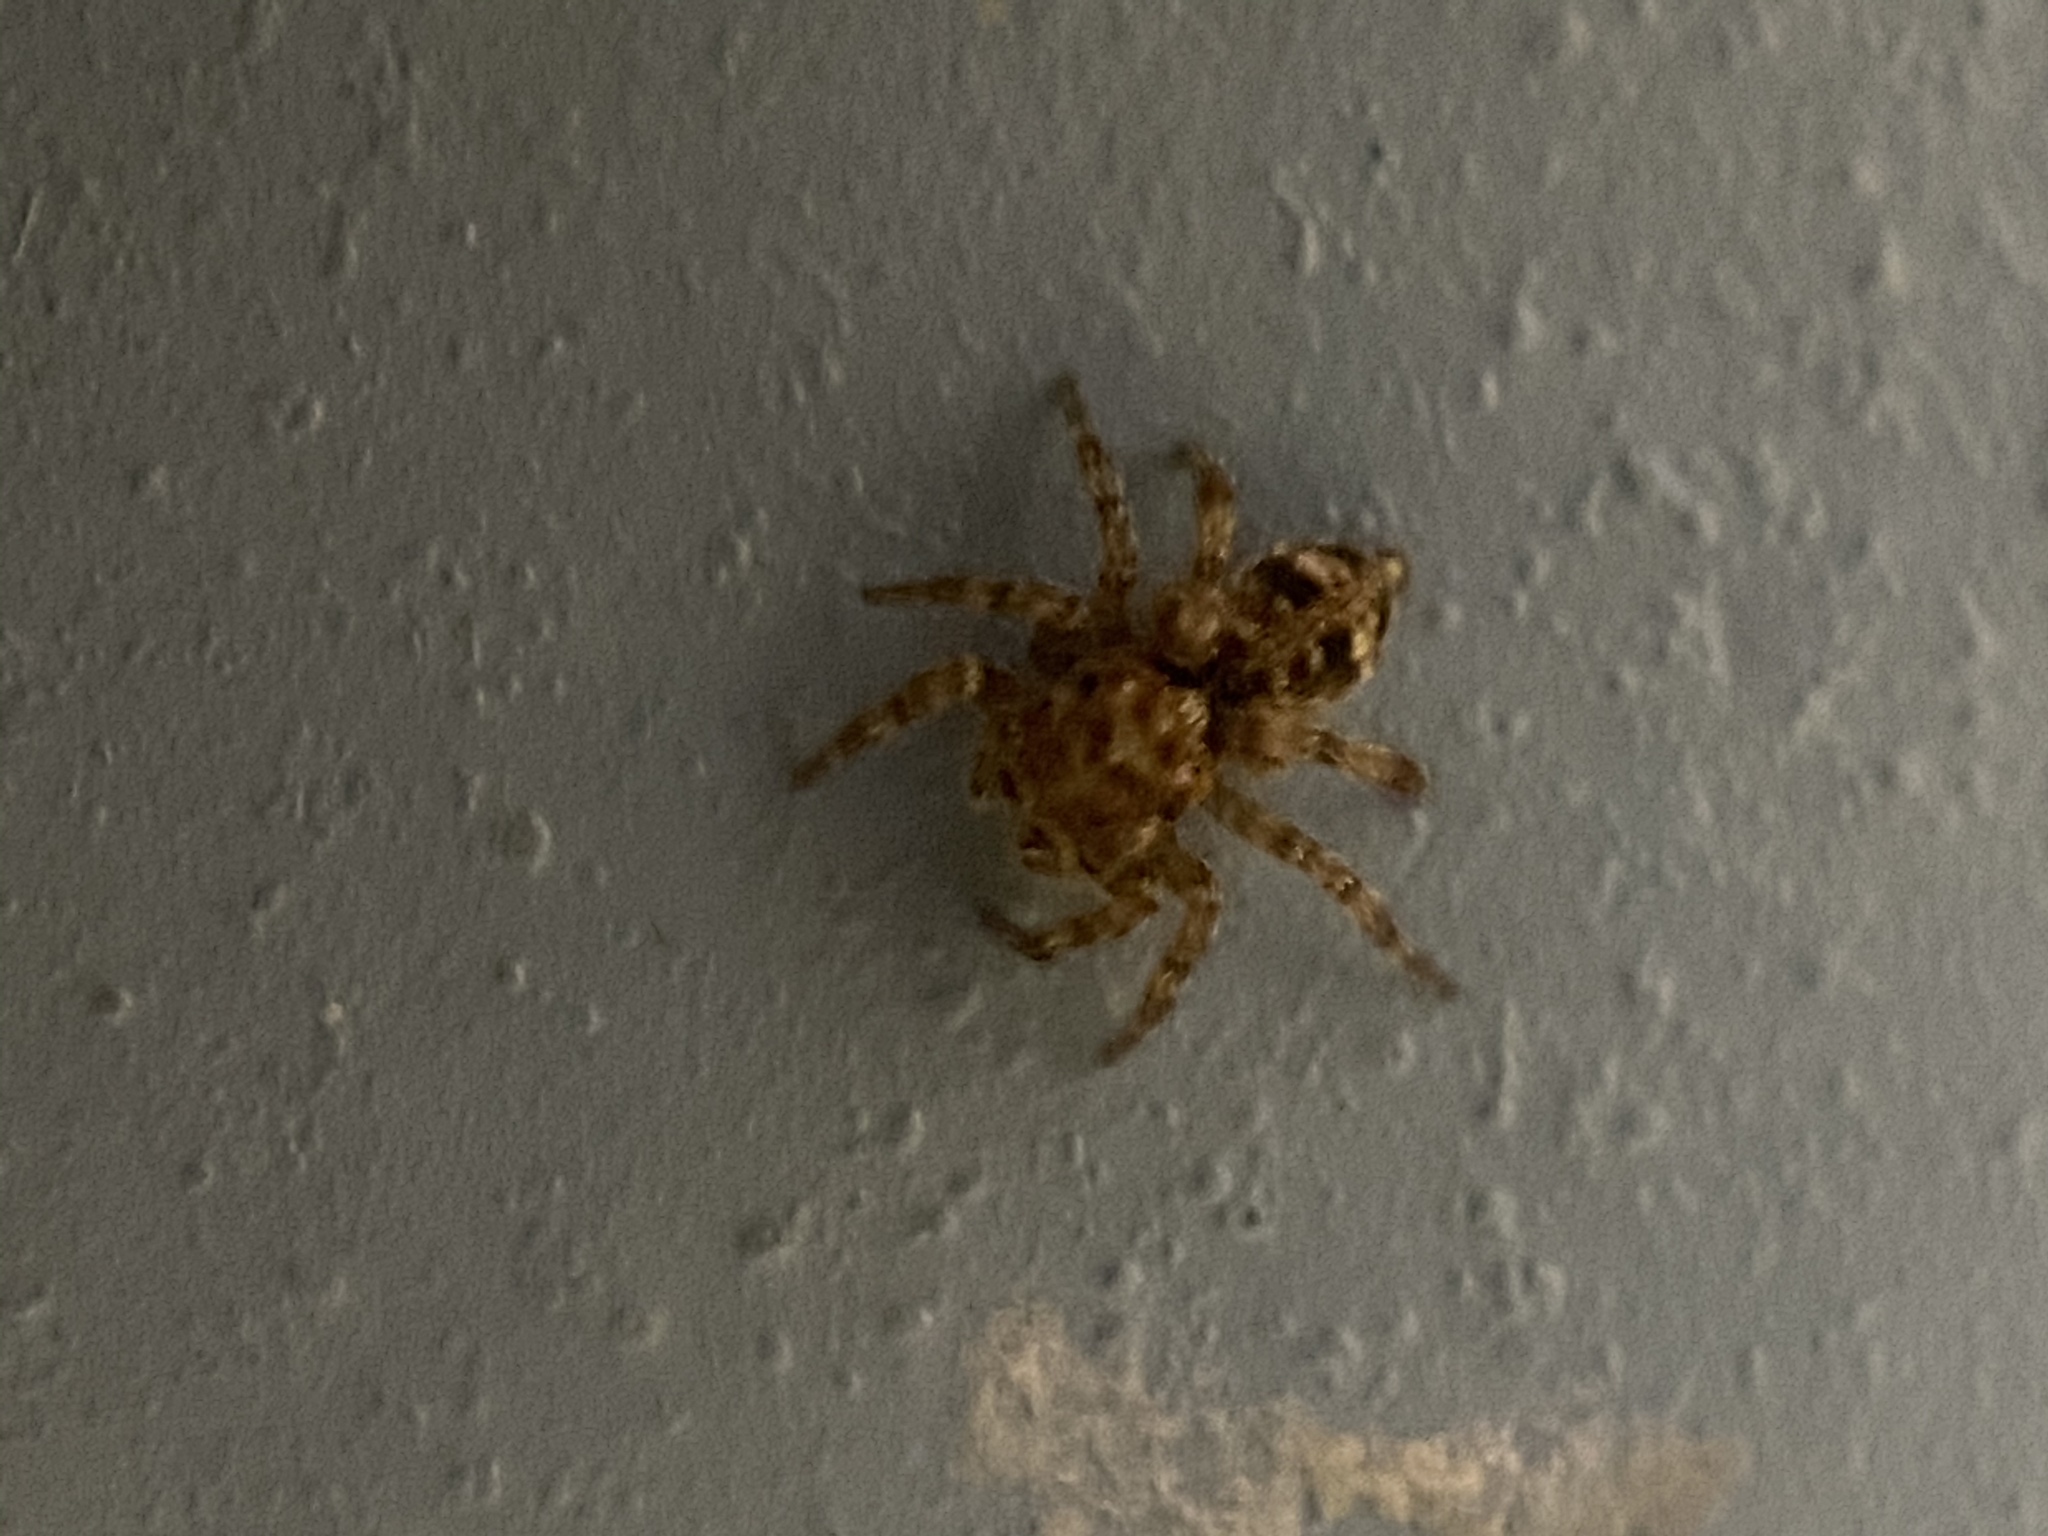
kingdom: Animalia
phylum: Arthropoda
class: Arachnida
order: Araneae
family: Salticidae
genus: Attulus
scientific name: Attulus fasciger
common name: Asiatic wall jumping spider
